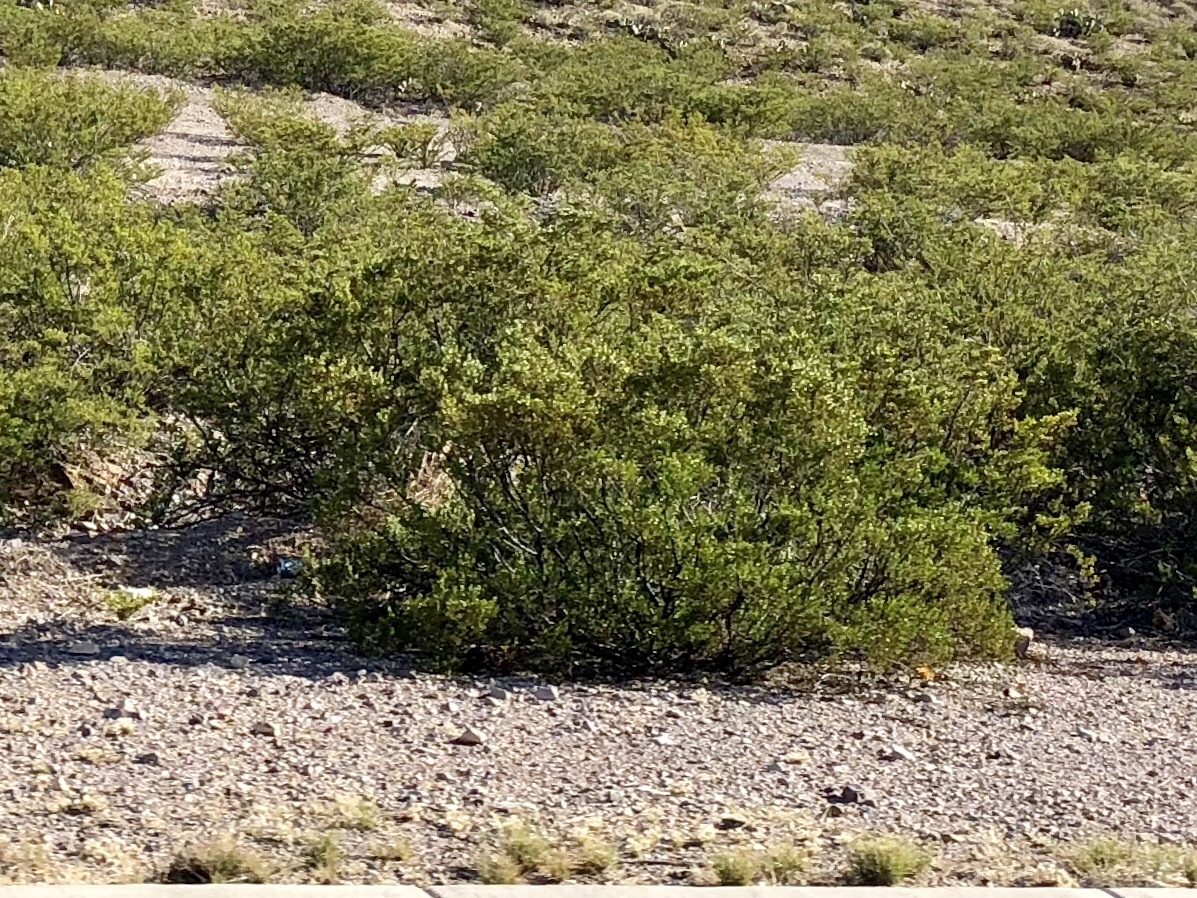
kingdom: Plantae
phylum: Tracheophyta
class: Magnoliopsida
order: Zygophyllales
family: Zygophyllaceae
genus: Larrea
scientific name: Larrea tridentata
